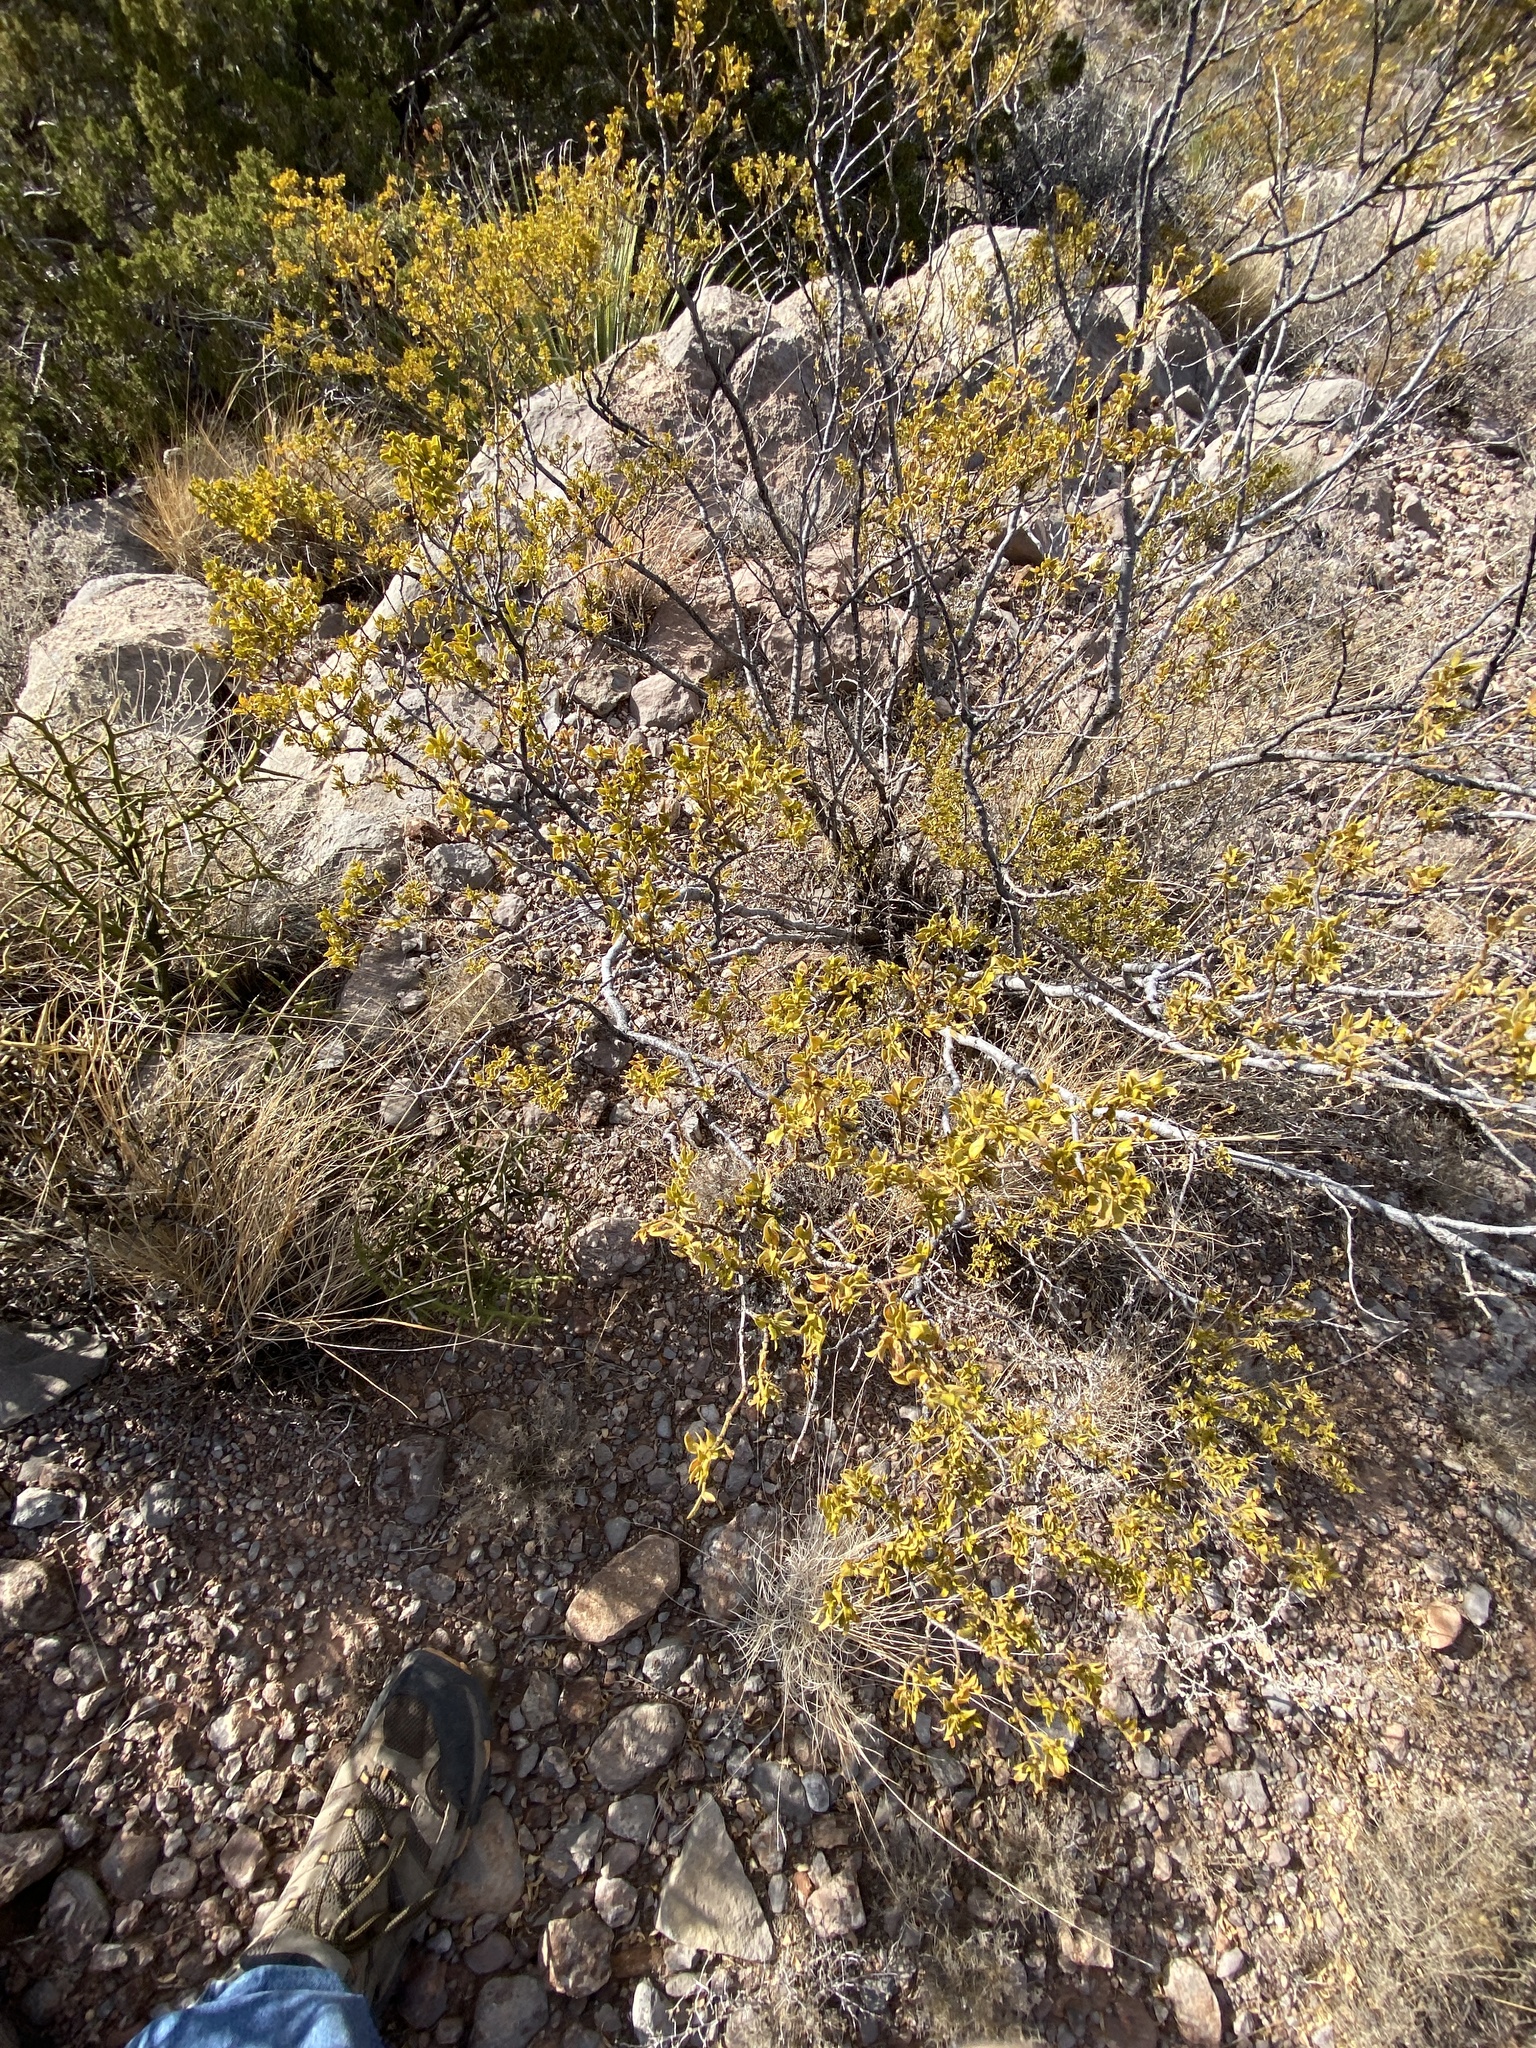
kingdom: Plantae
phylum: Tracheophyta
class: Magnoliopsida
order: Zygophyllales
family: Zygophyllaceae
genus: Larrea
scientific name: Larrea tridentata
